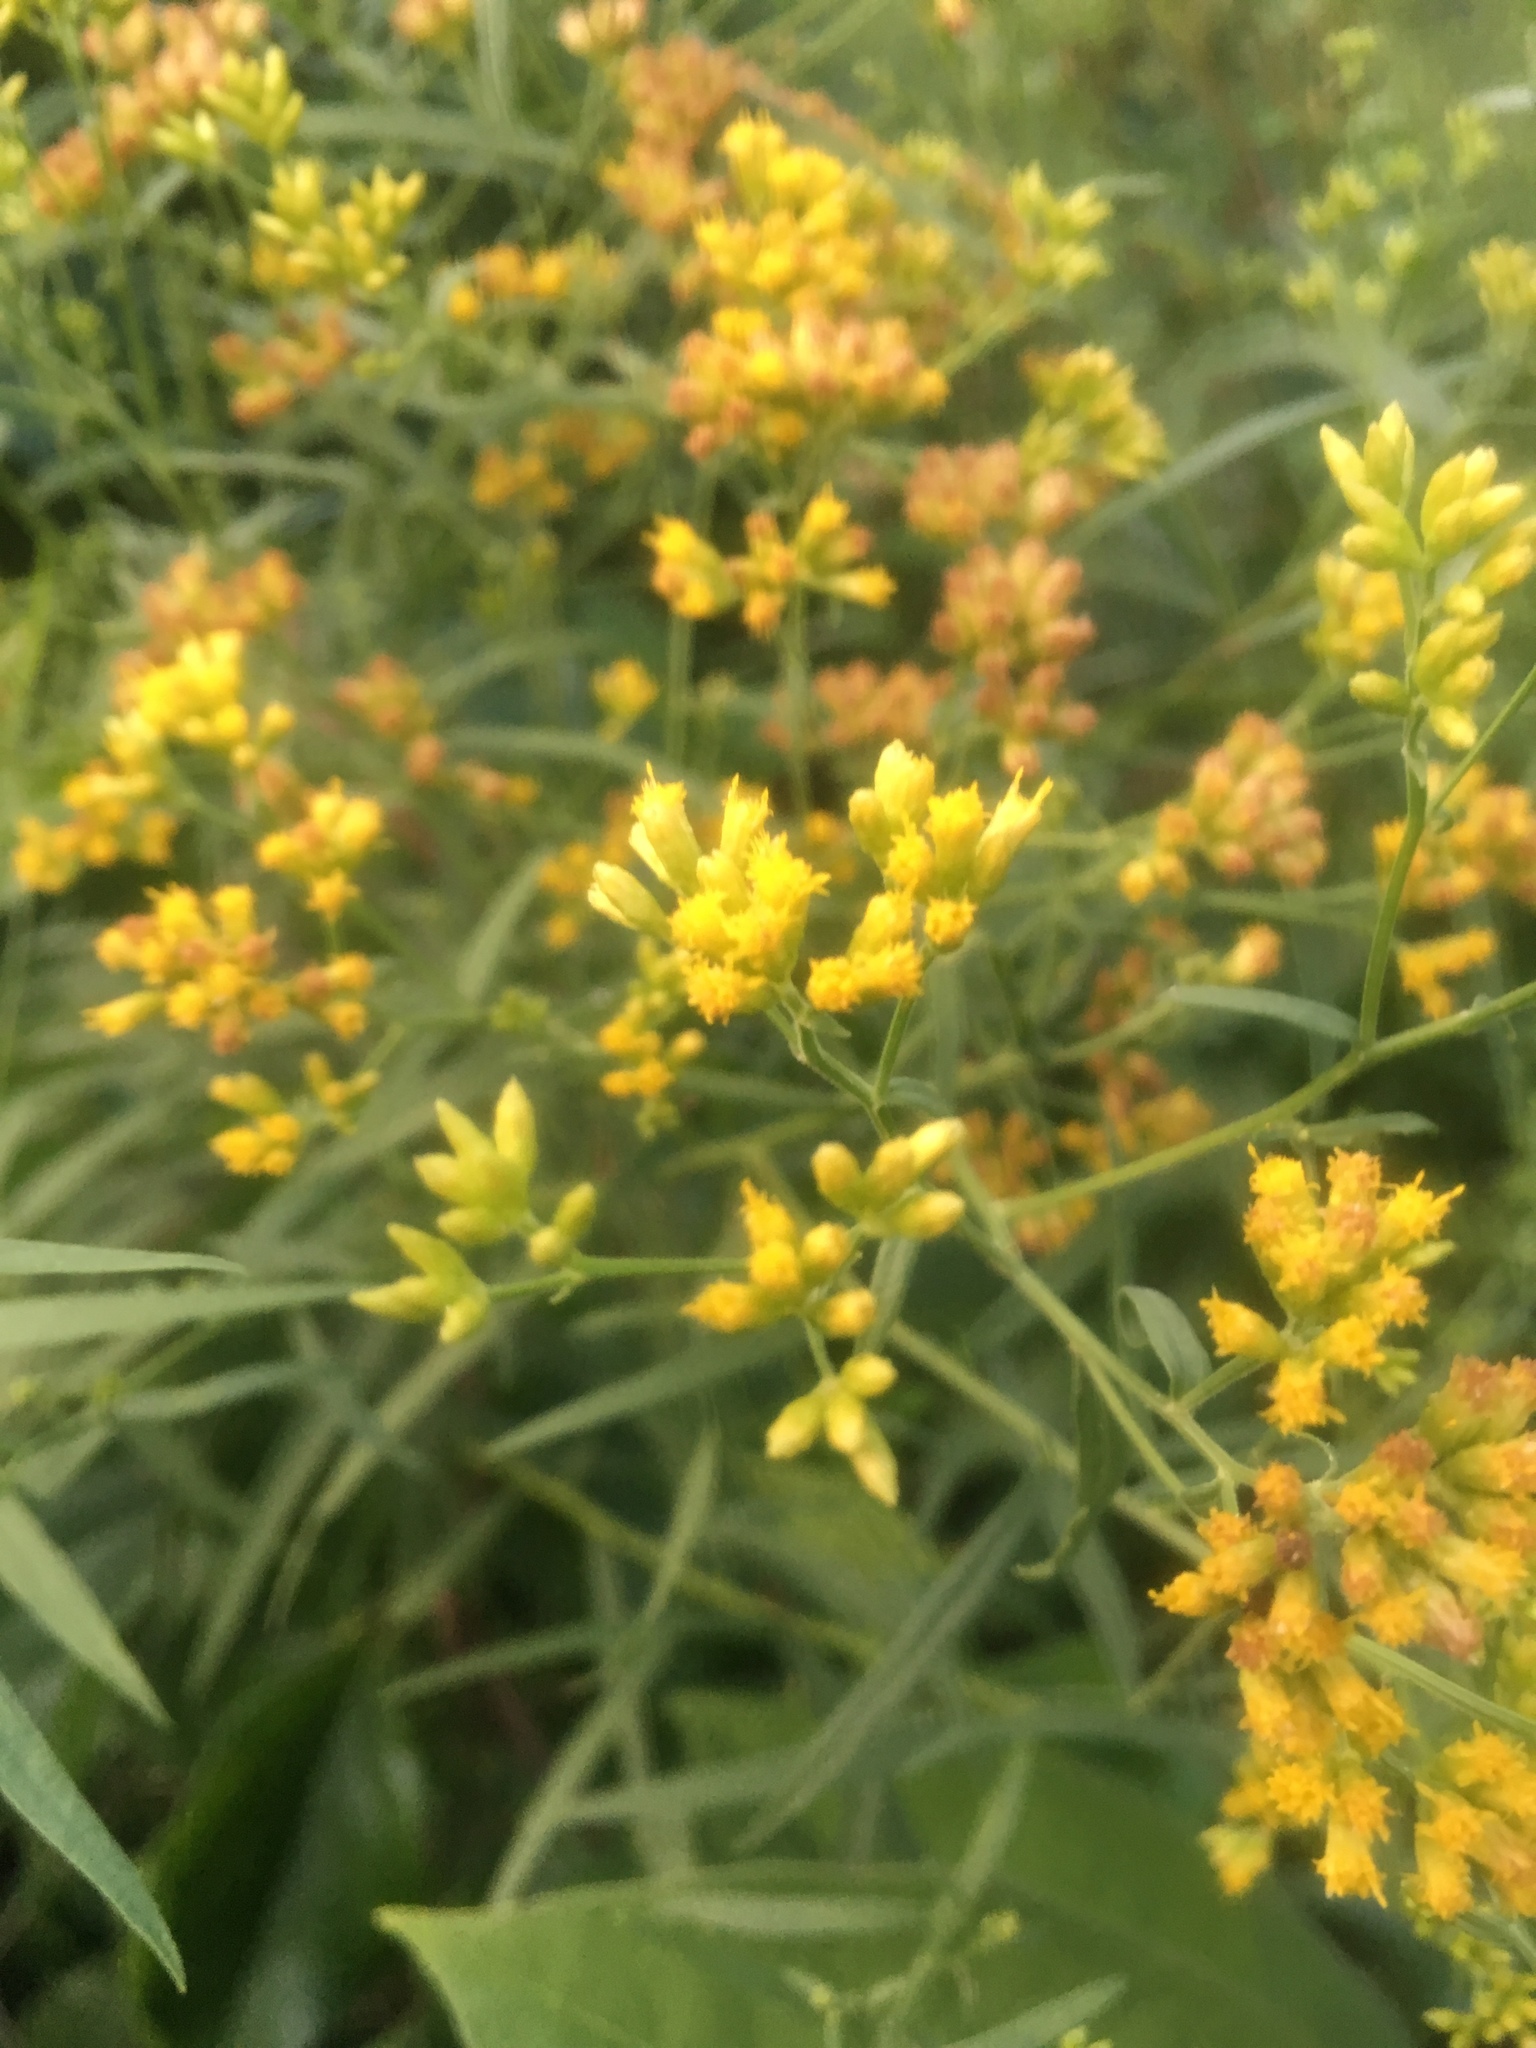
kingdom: Plantae
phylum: Tracheophyta
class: Magnoliopsida
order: Asterales
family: Asteraceae
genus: Euthamia
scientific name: Euthamia graminifolia
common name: Common goldentop
